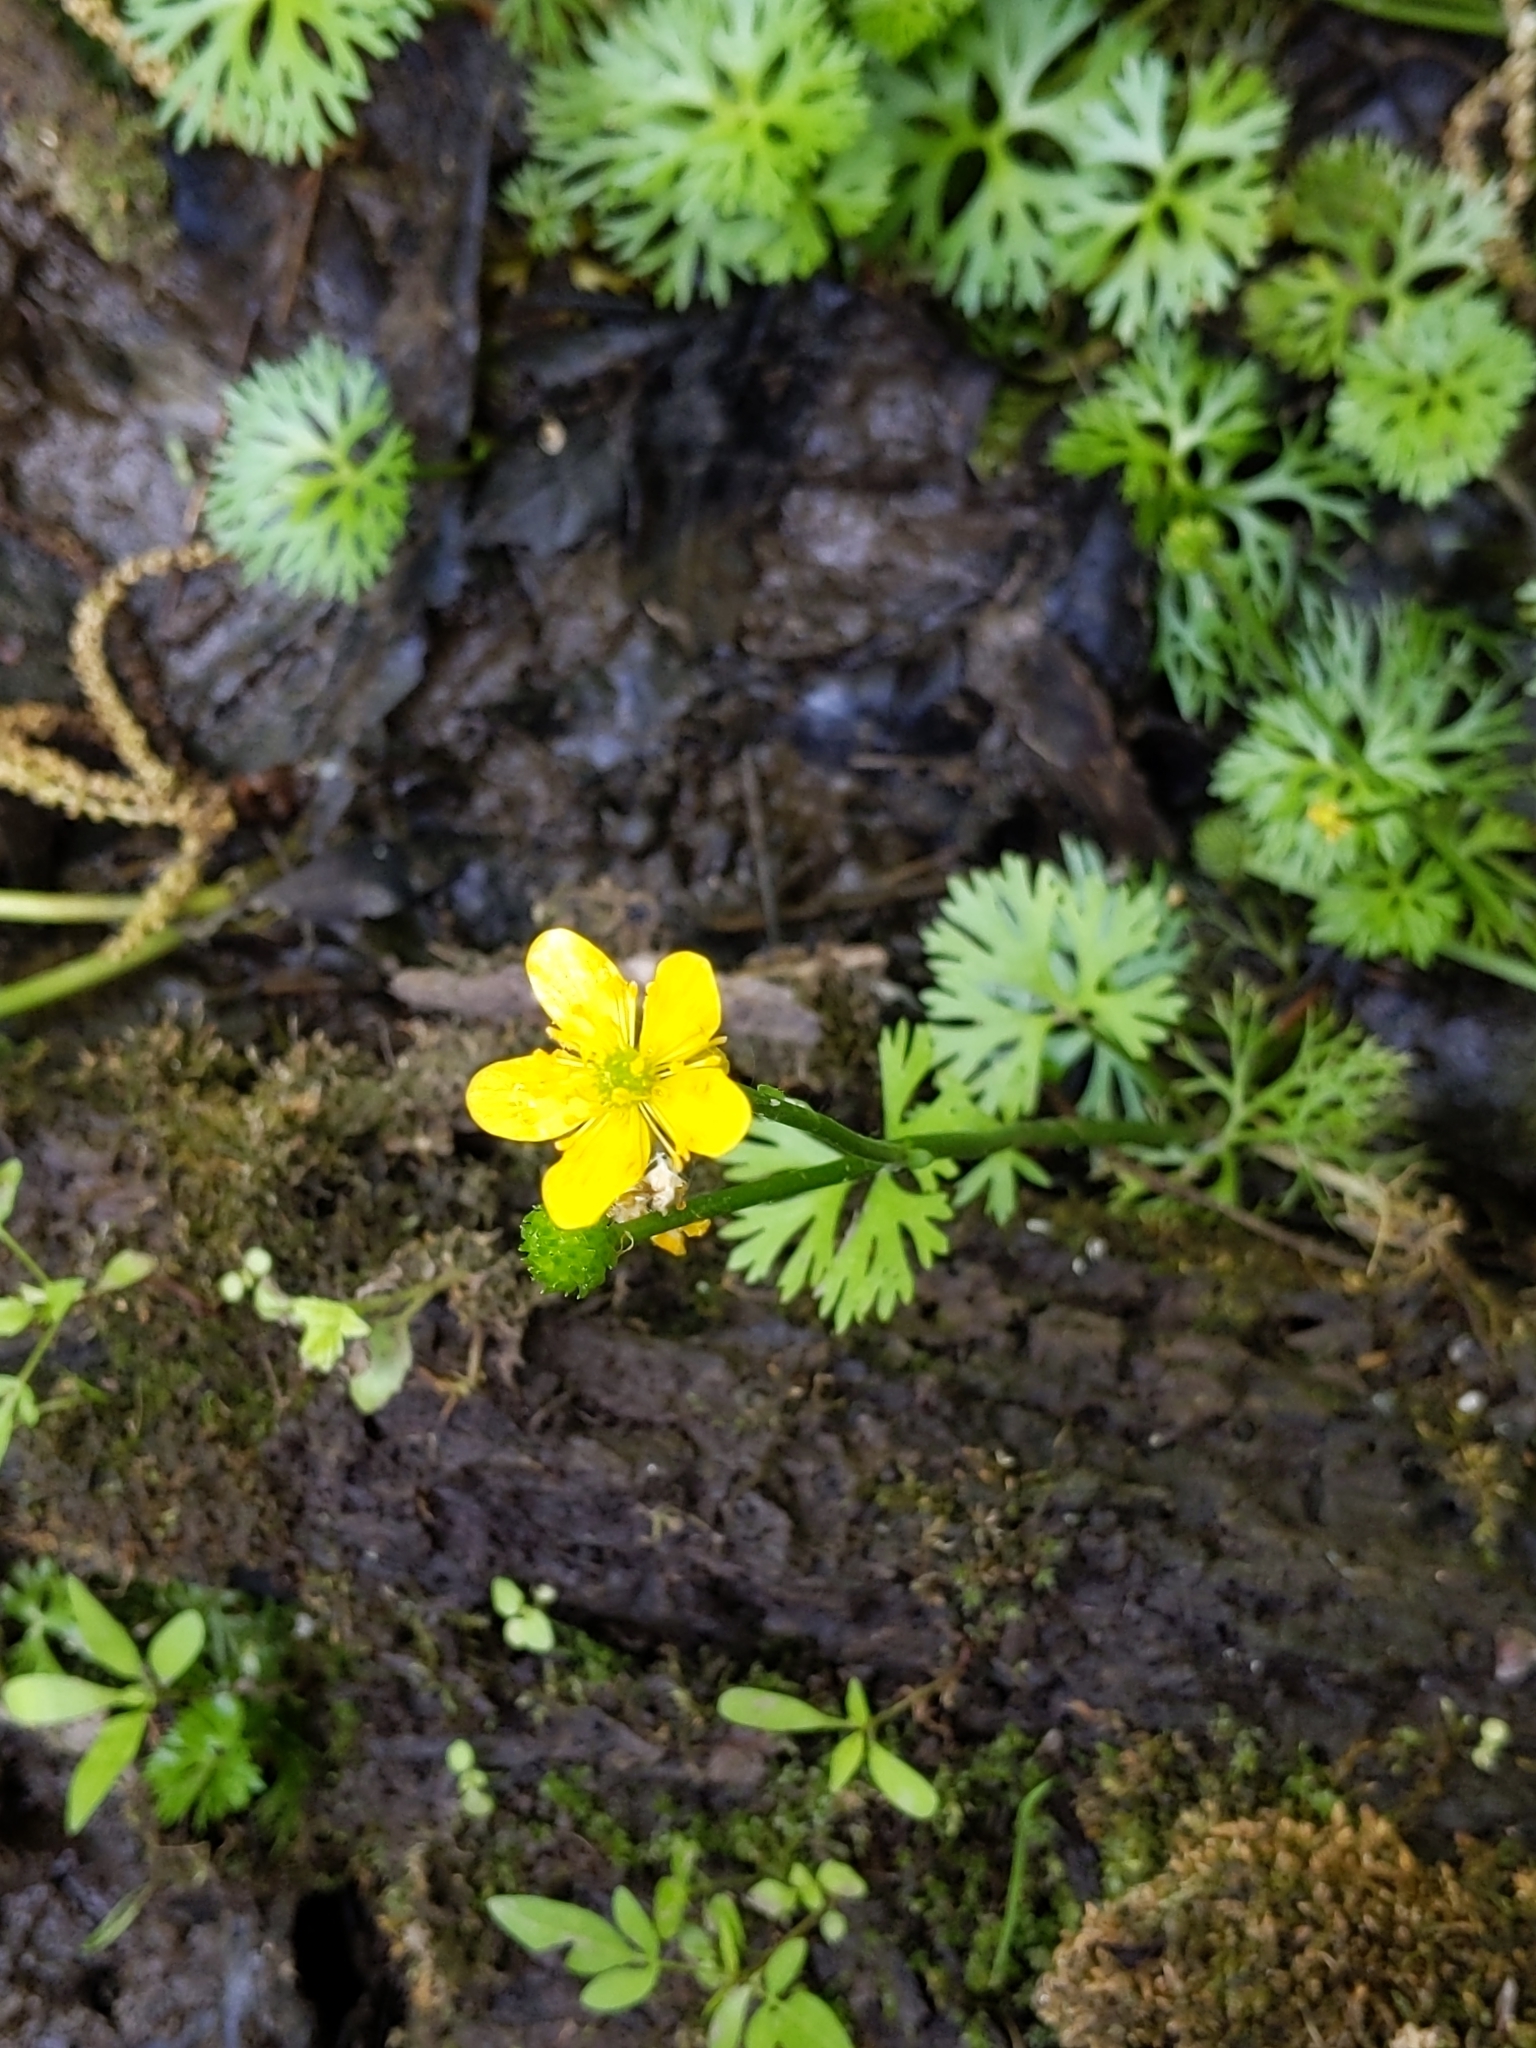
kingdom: Plantae
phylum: Tracheophyta
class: Magnoliopsida
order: Ranunculales
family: Ranunculaceae
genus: Ranunculus
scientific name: Ranunculus flabellaris
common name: Yellow water-crowfoot
